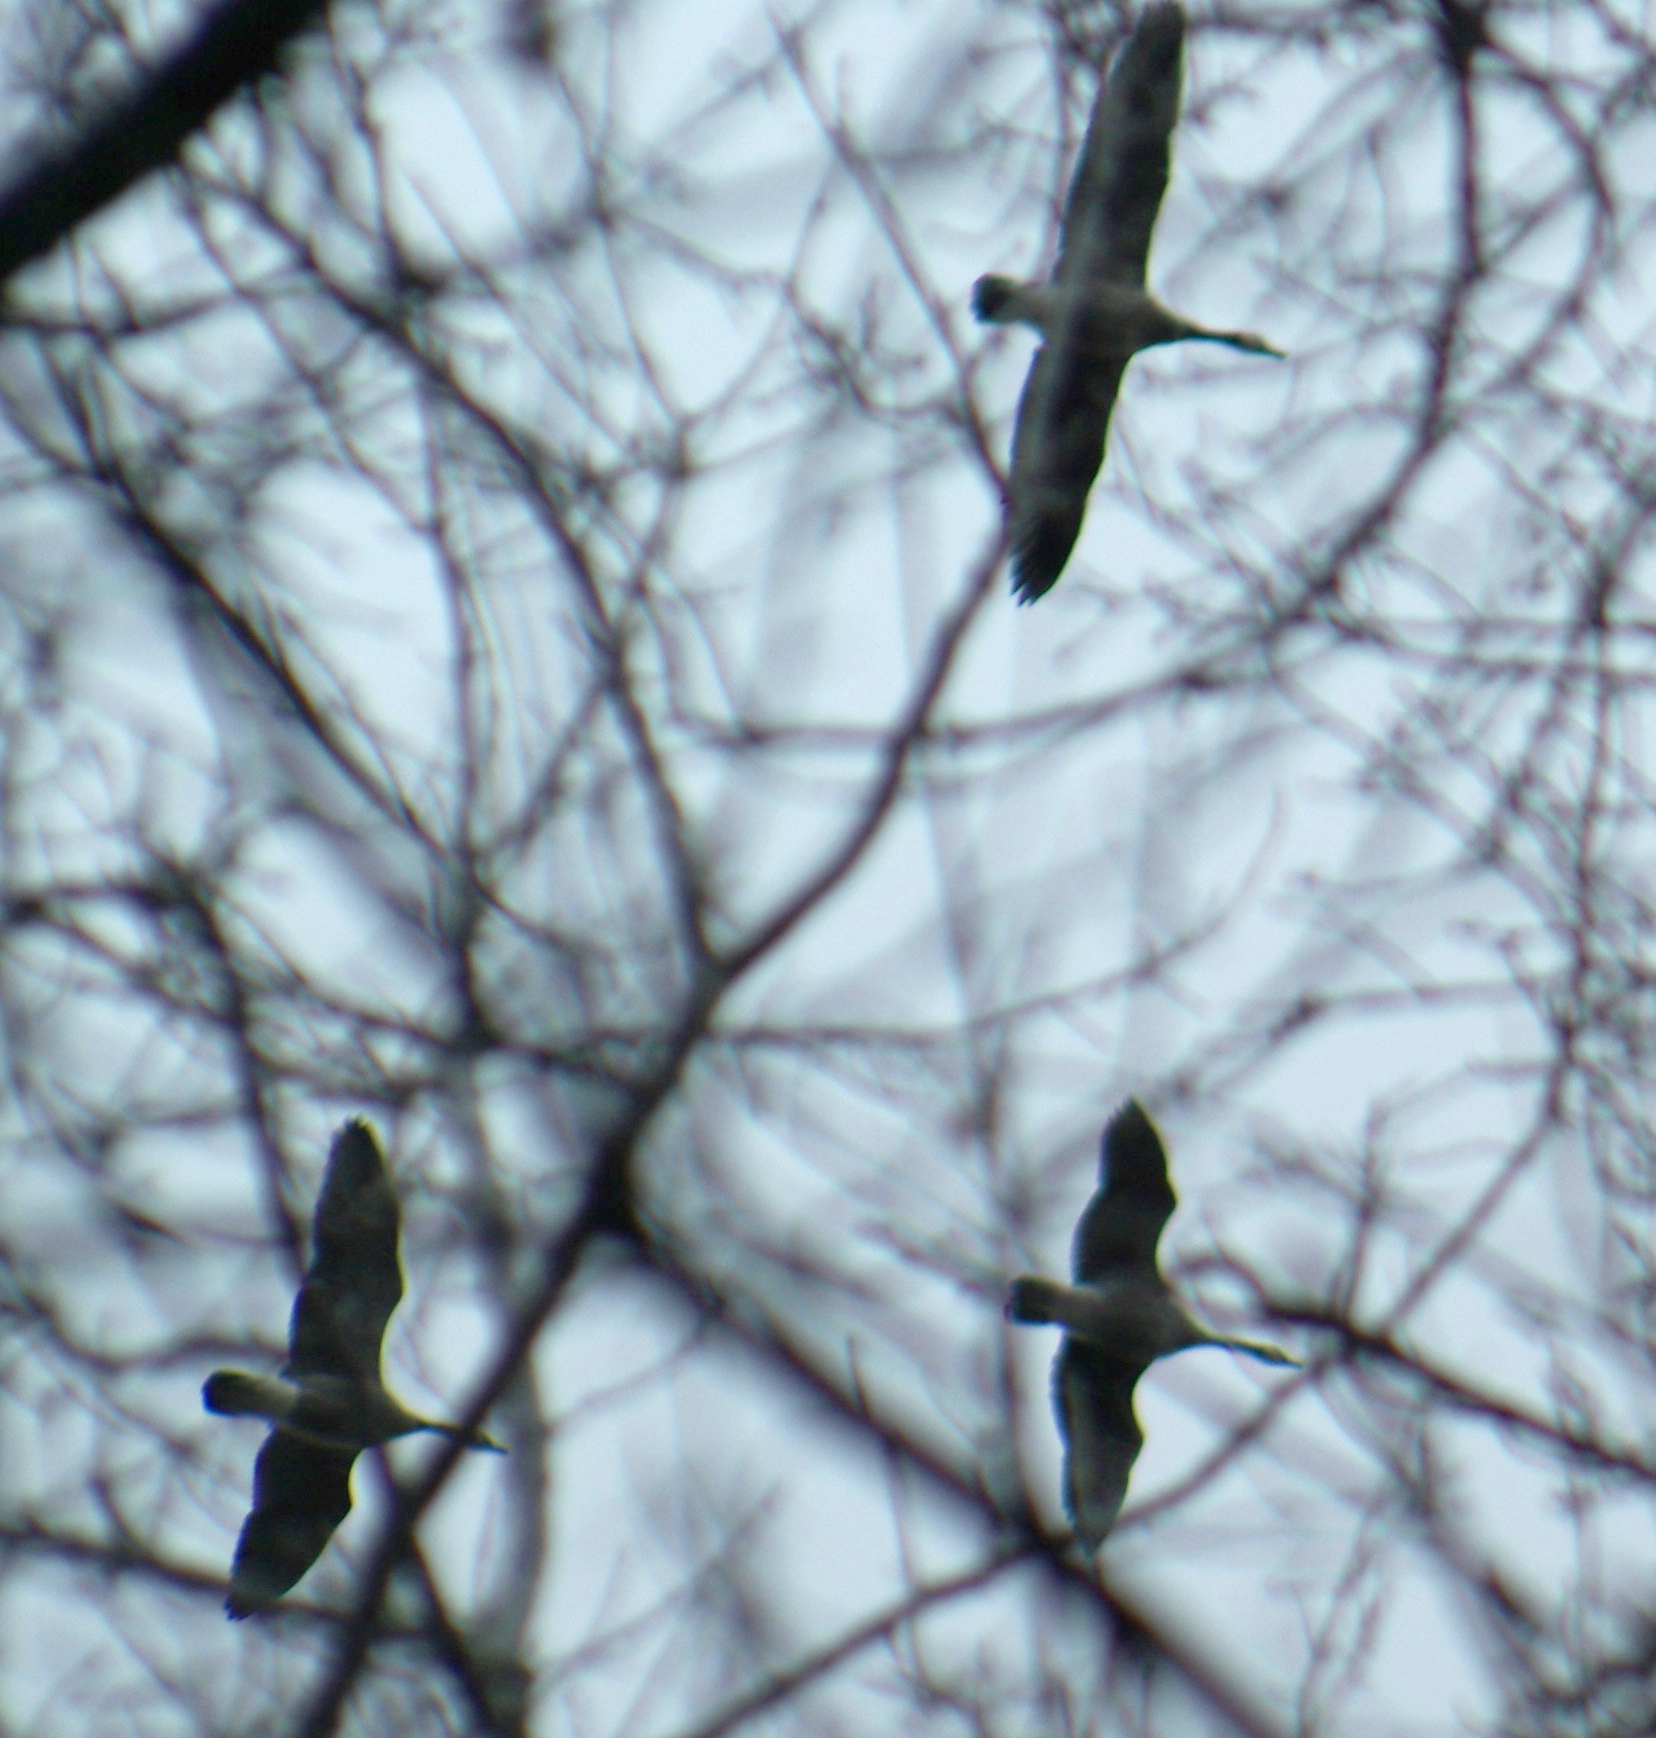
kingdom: Animalia
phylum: Chordata
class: Aves
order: Anseriformes
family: Anatidae
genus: Branta
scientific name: Branta canadensis
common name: Canada goose
